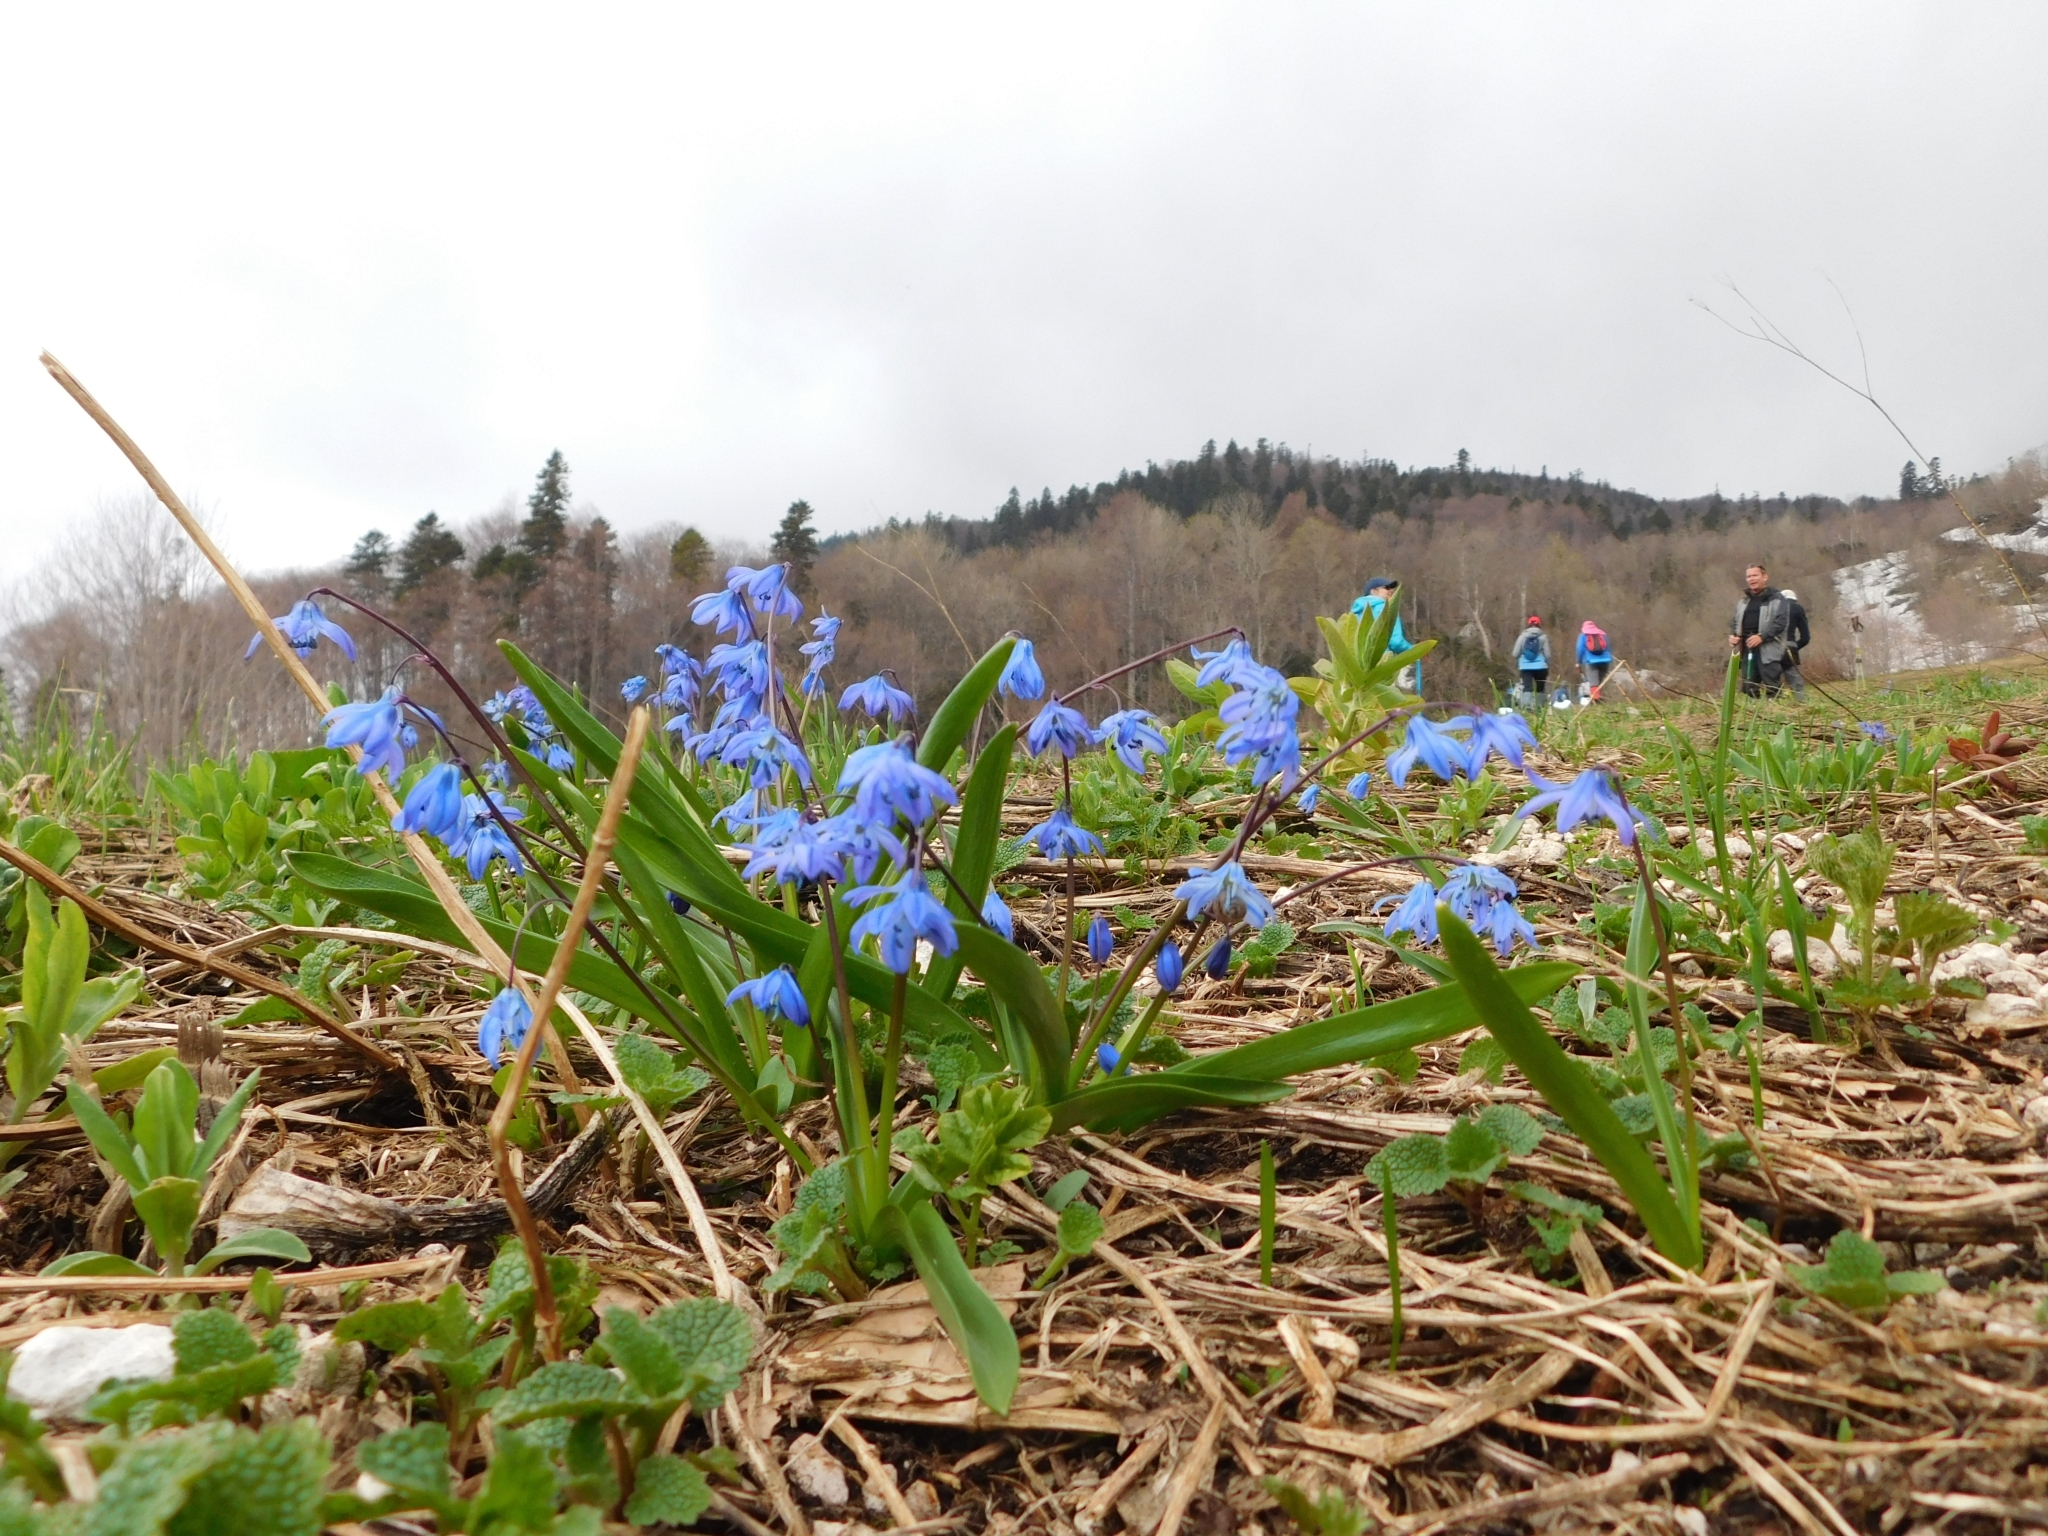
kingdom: Plantae
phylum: Tracheophyta
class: Liliopsida
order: Asparagales
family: Asparagaceae
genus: Scilla
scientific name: Scilla siberica
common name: Siberian squill
